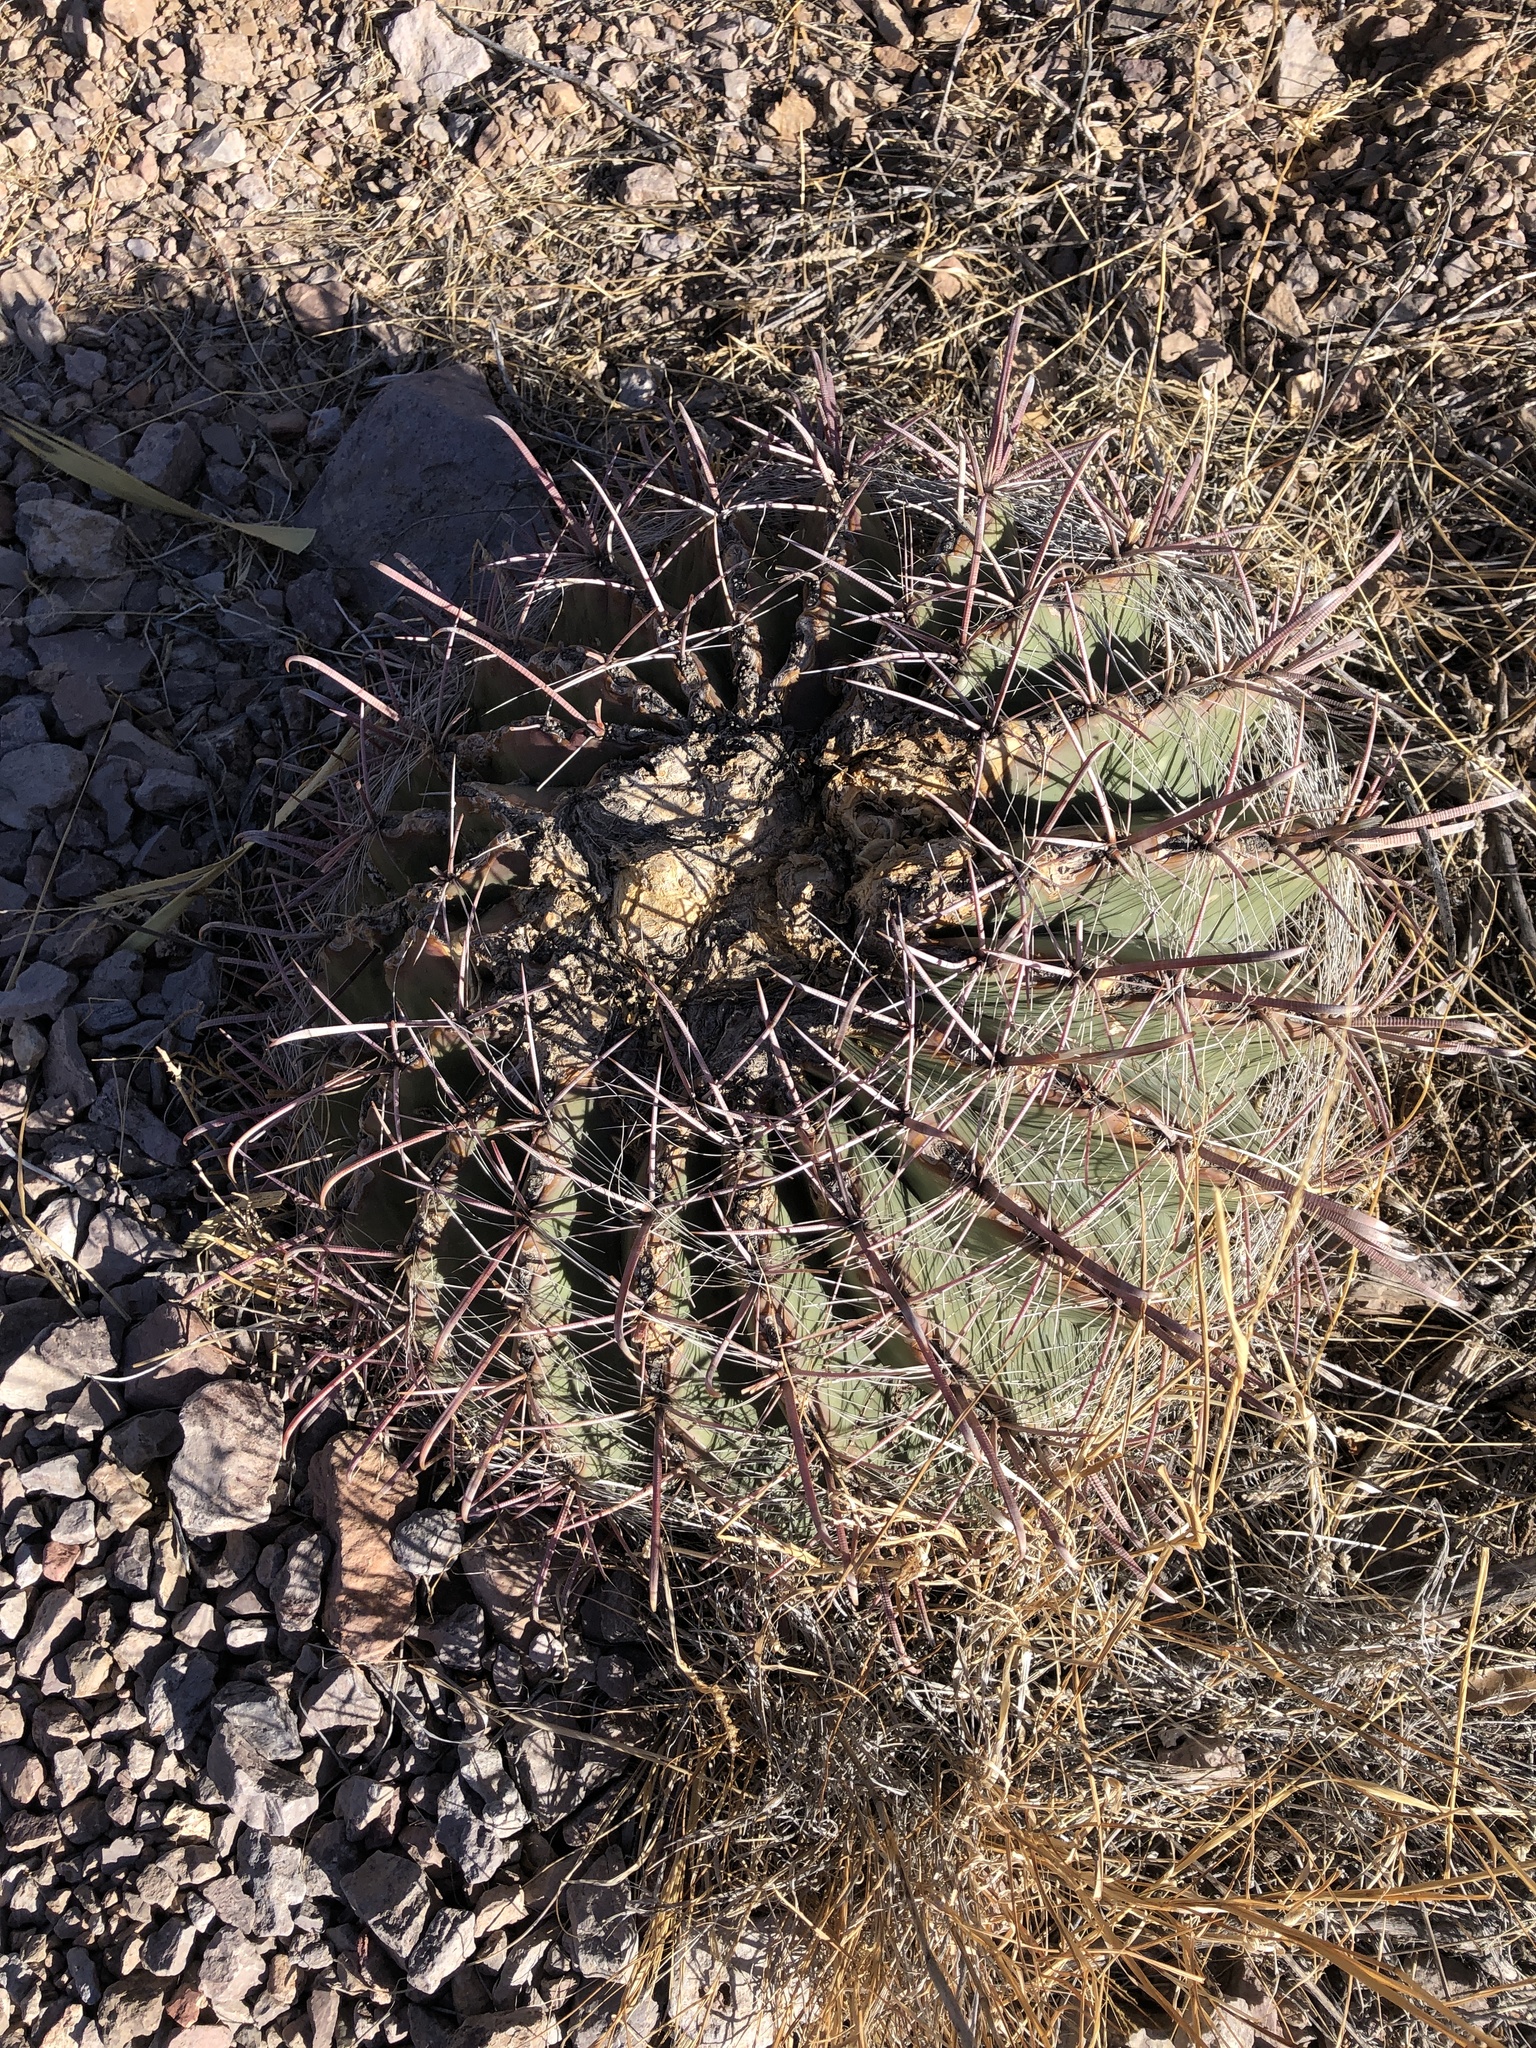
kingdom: Plantae
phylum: Tracheophyta
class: Magnoliopsida
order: Caryophyllales
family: Cactaceae
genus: Ferocactus
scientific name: Ferocactus wislizeni
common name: Candy barrel cactus
